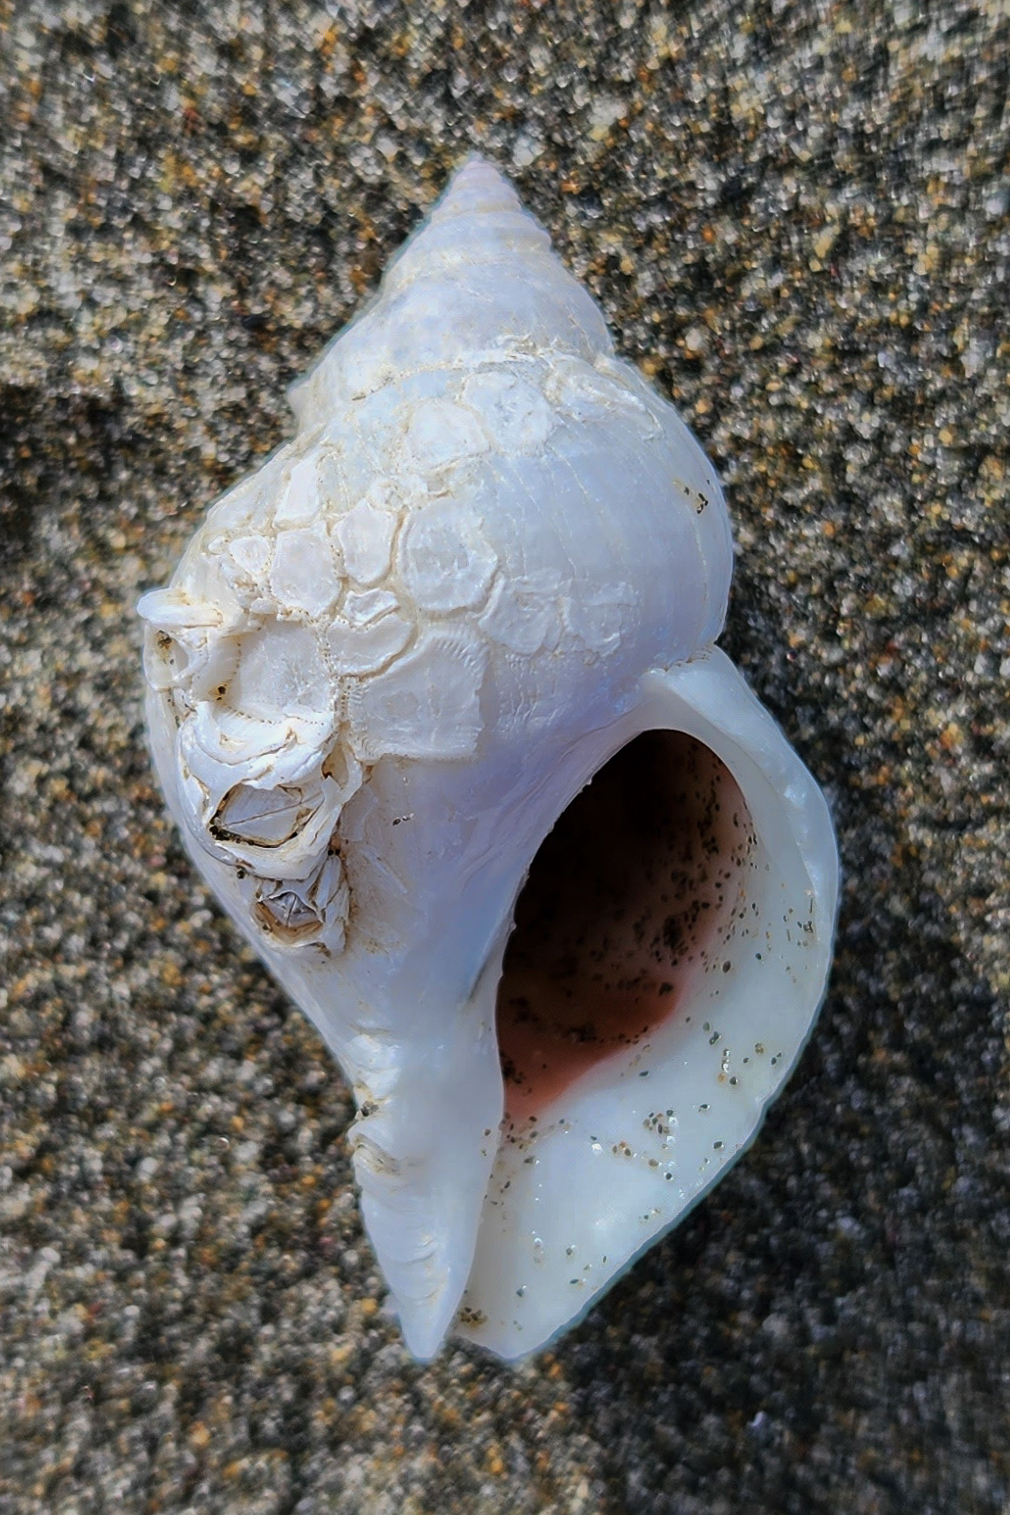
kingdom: Animalia
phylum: Mollusca
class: Gastropoda
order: Neogastropoda
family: Muricidae
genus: Nucella
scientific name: Nucella lamellosa
